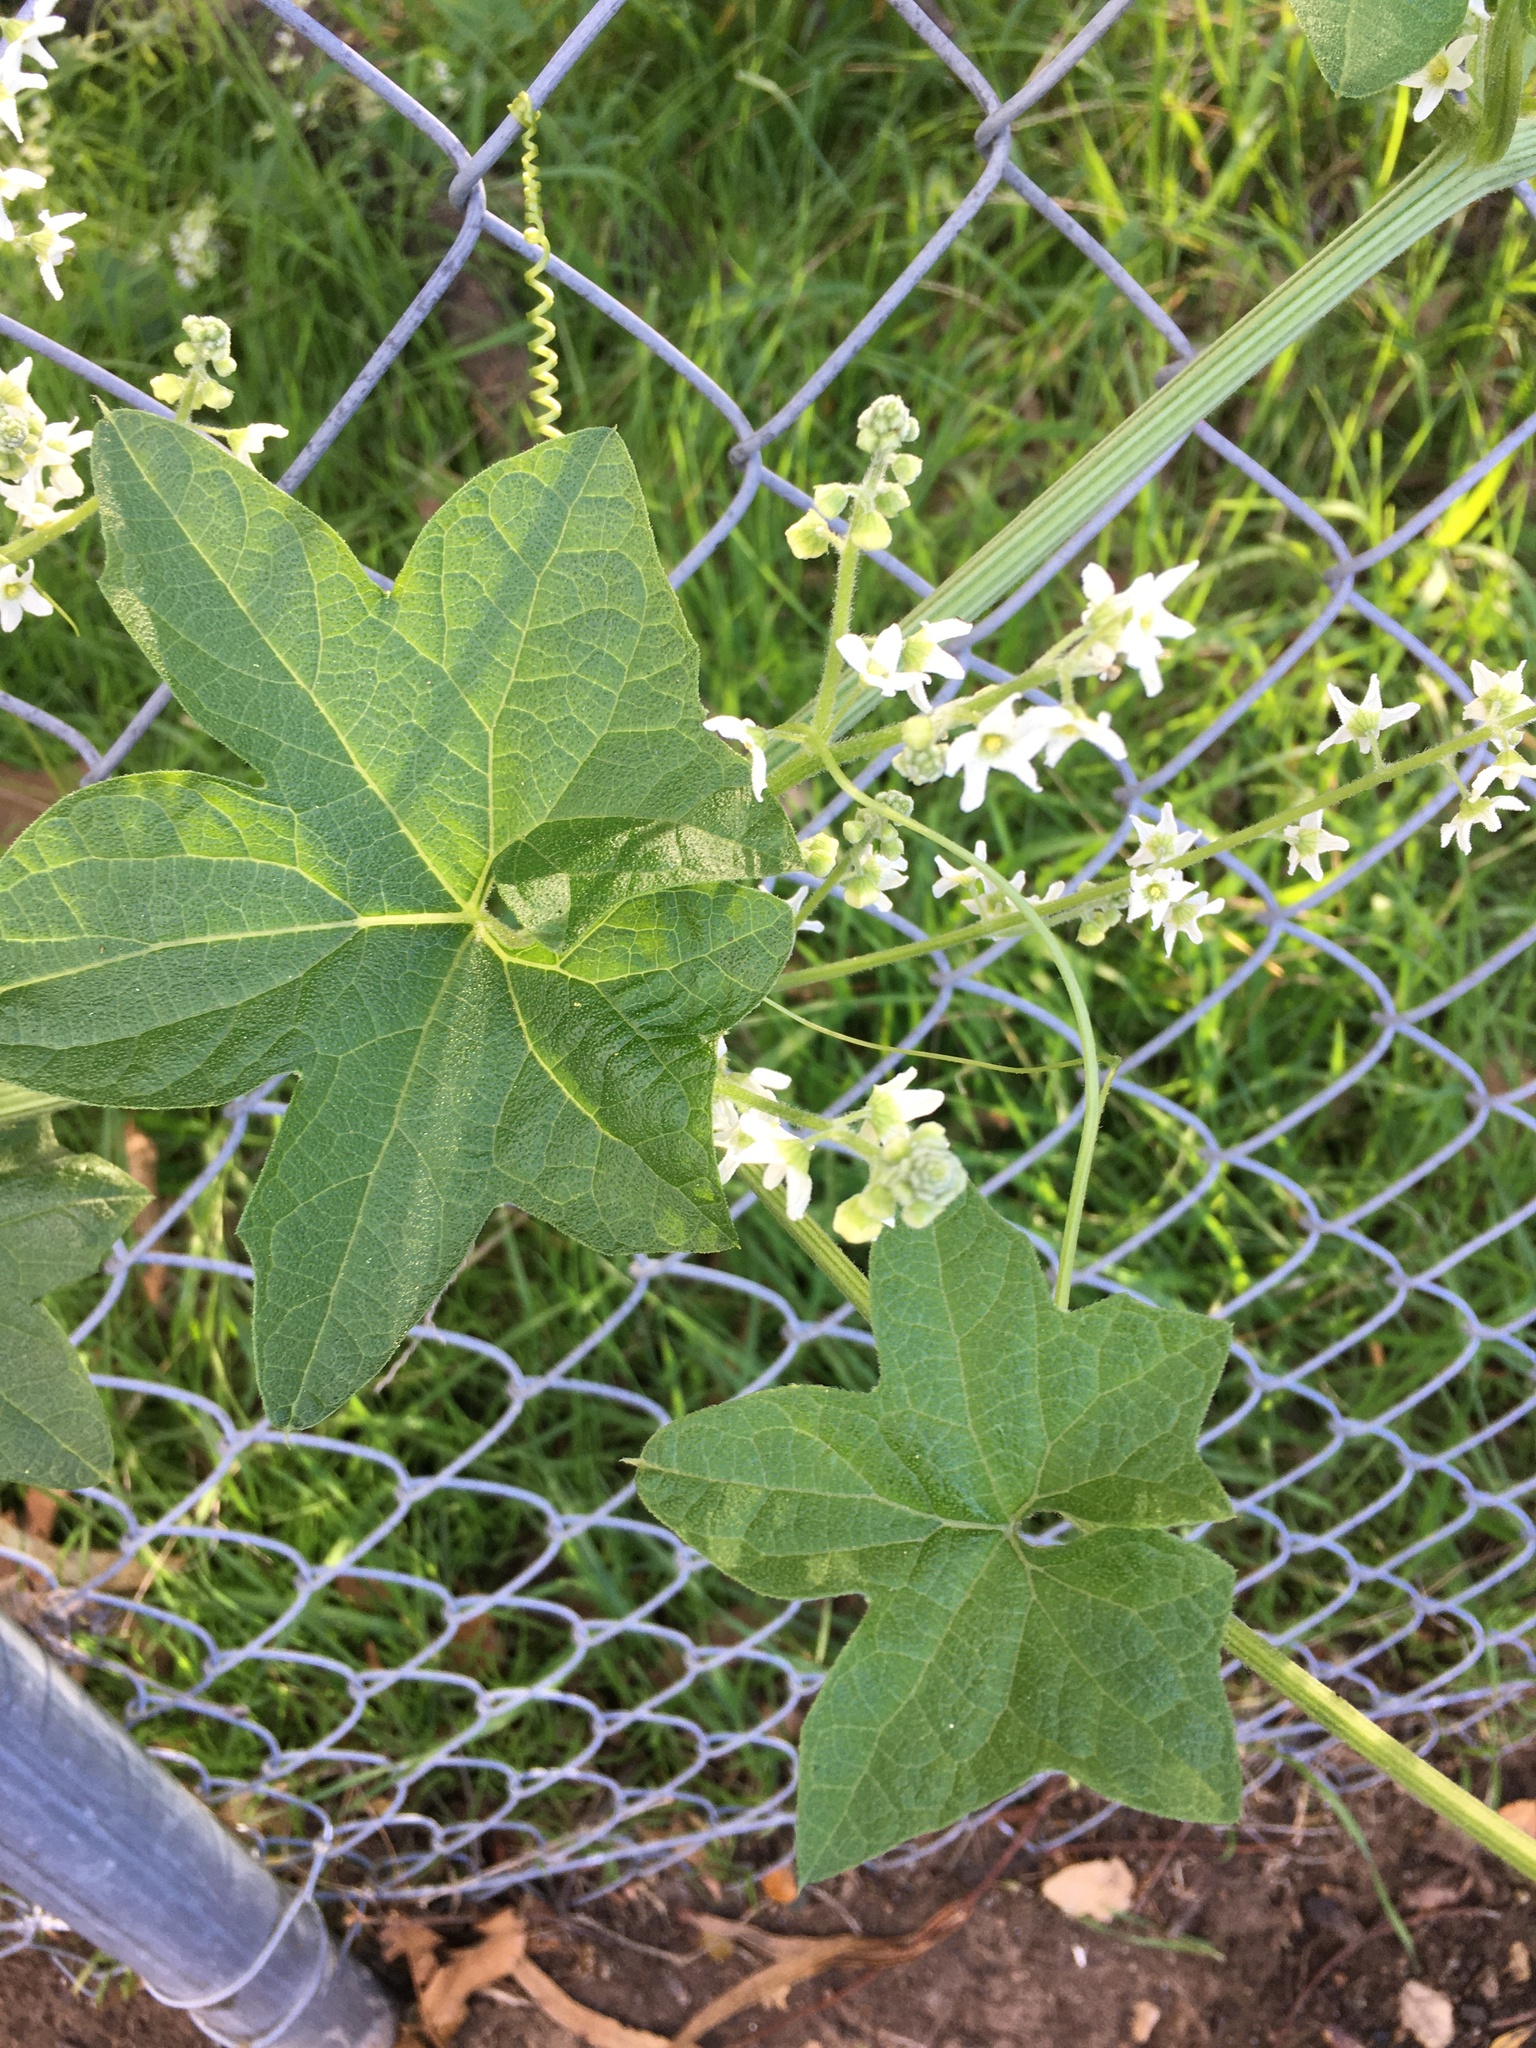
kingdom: Plantae
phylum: Tracheophyta
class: Magnoliopsida
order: Cucurbitales
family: Cucurbitaceae
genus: Marah
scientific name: Marah macrocarpa
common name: Cucamonga manroot
